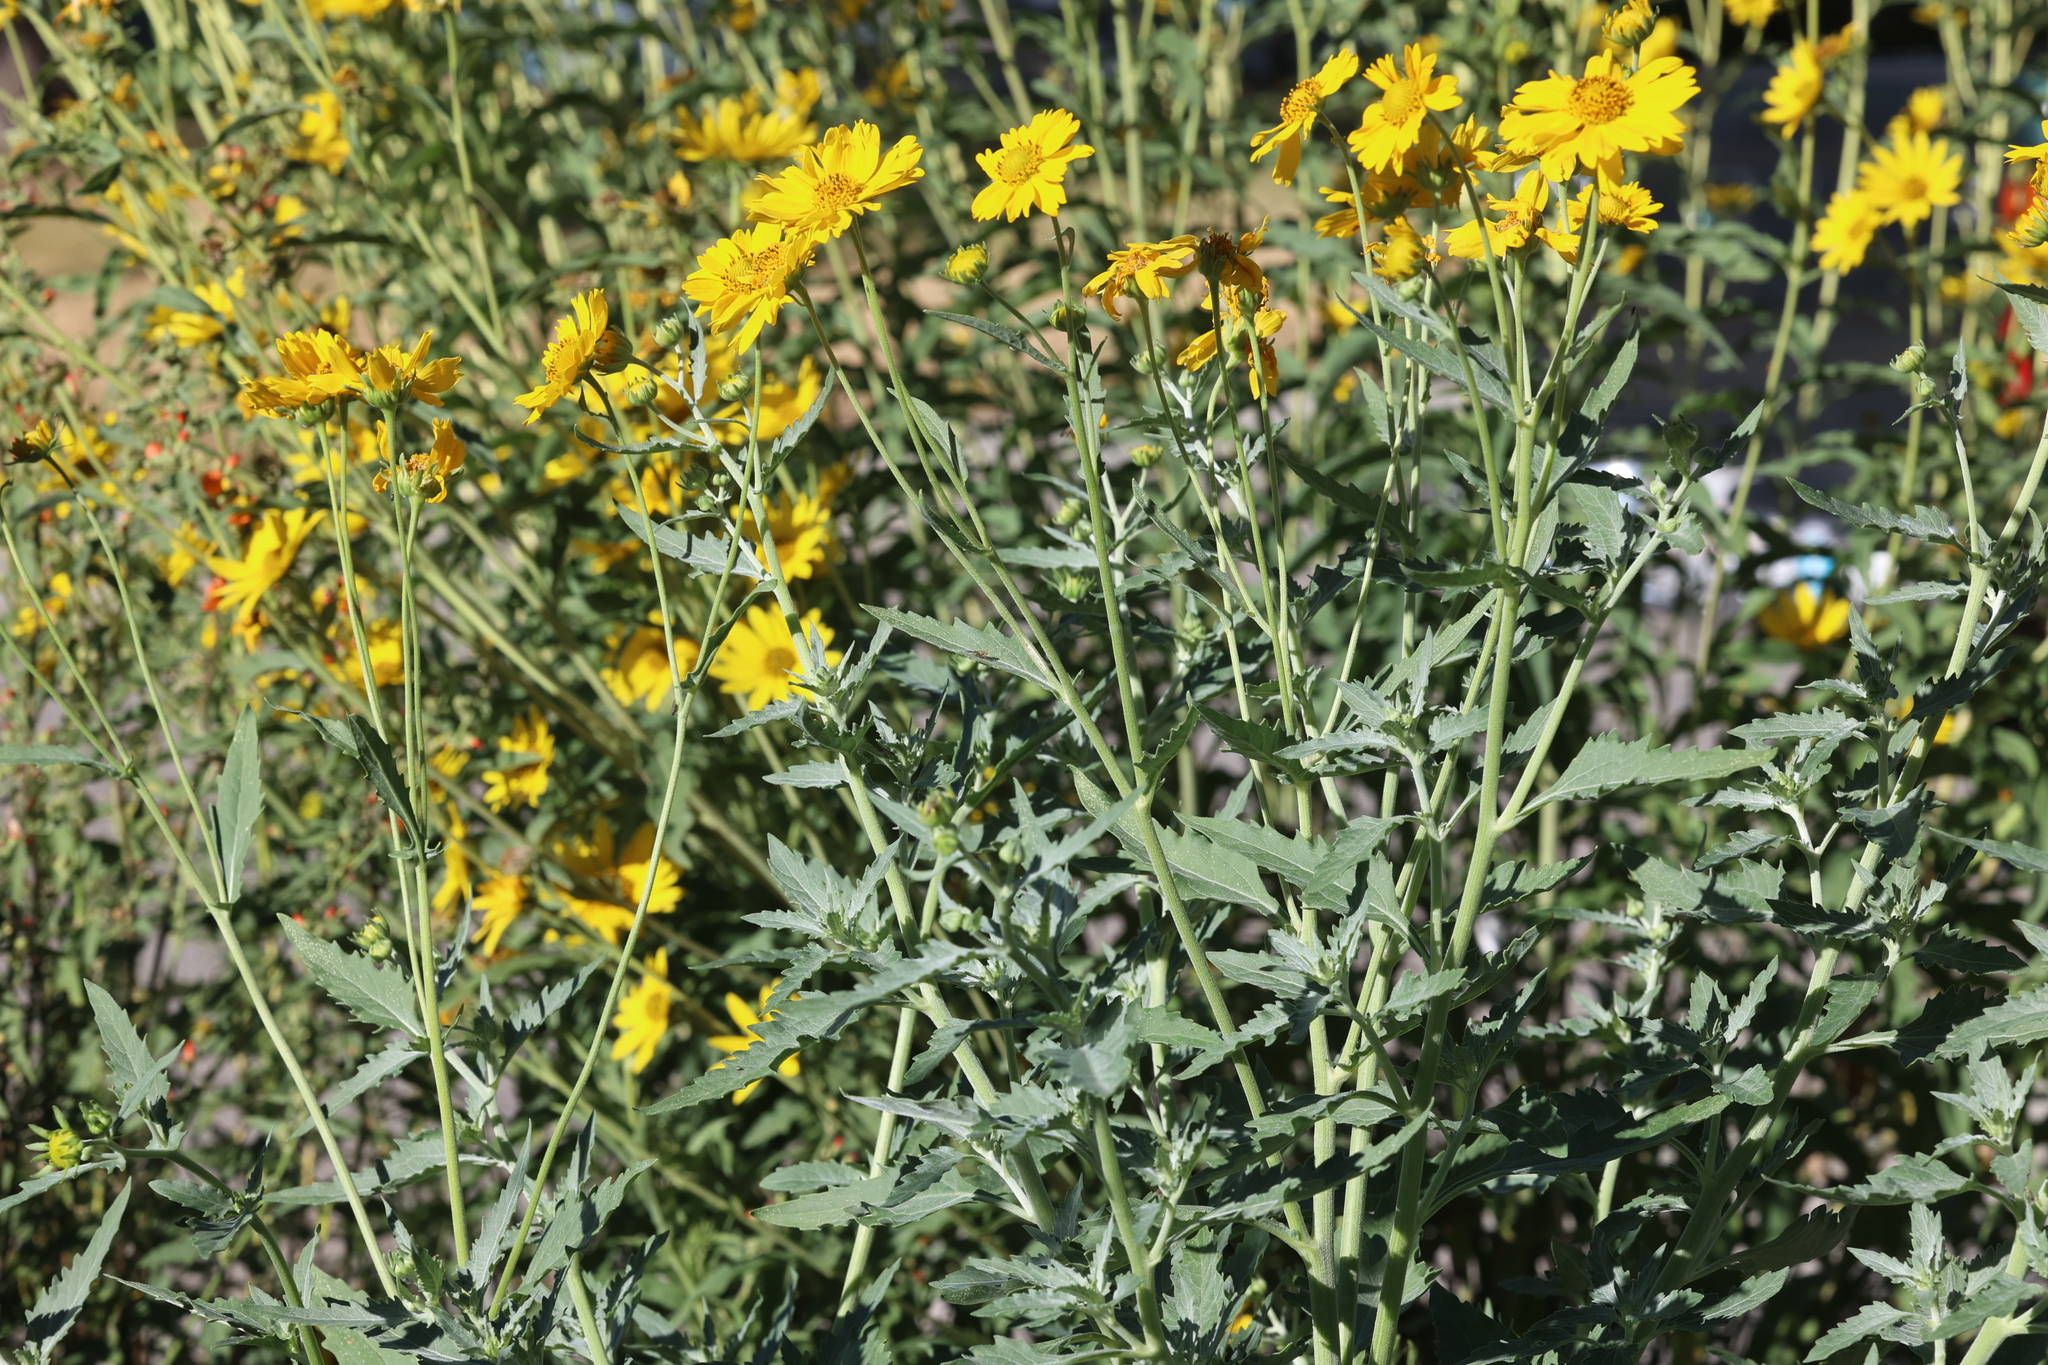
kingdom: Plantae
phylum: Tracheophyta
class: Magnoliopsida
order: Asterales
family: Asteraceae
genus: Verbesina
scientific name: Verbesina encelioides
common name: Golden crownbeard
